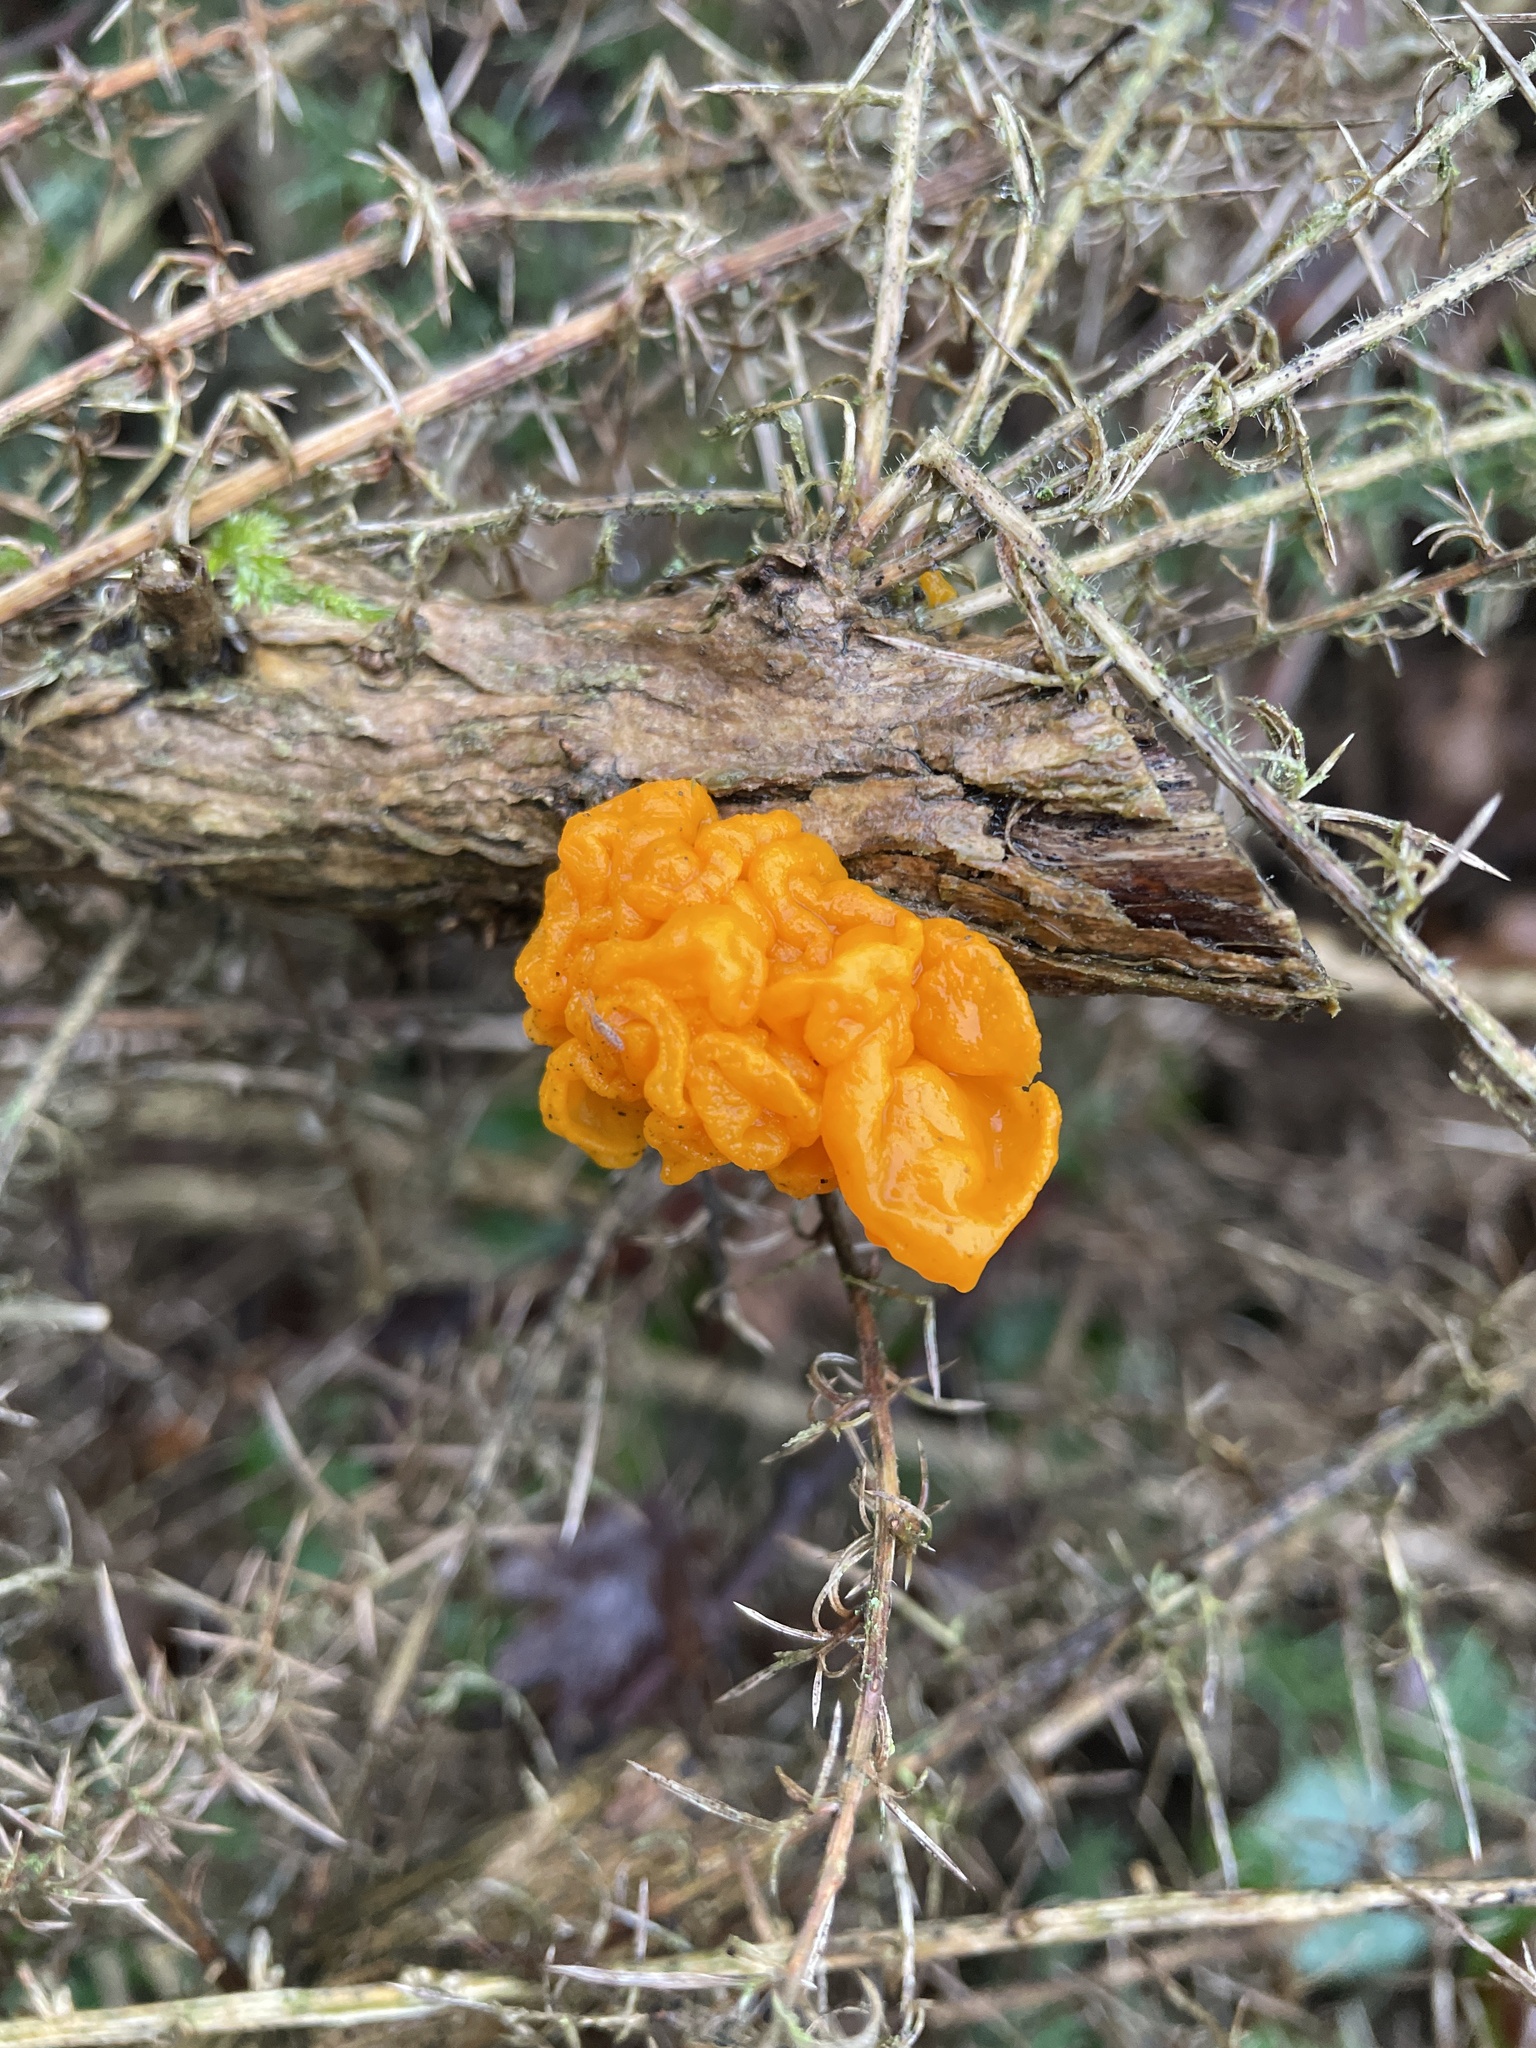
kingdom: Fungi
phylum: Basidiomycota
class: Tremellomycetes
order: Tremellales
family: Tremellaceae
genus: Tremella
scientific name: Tremella mesenterica
